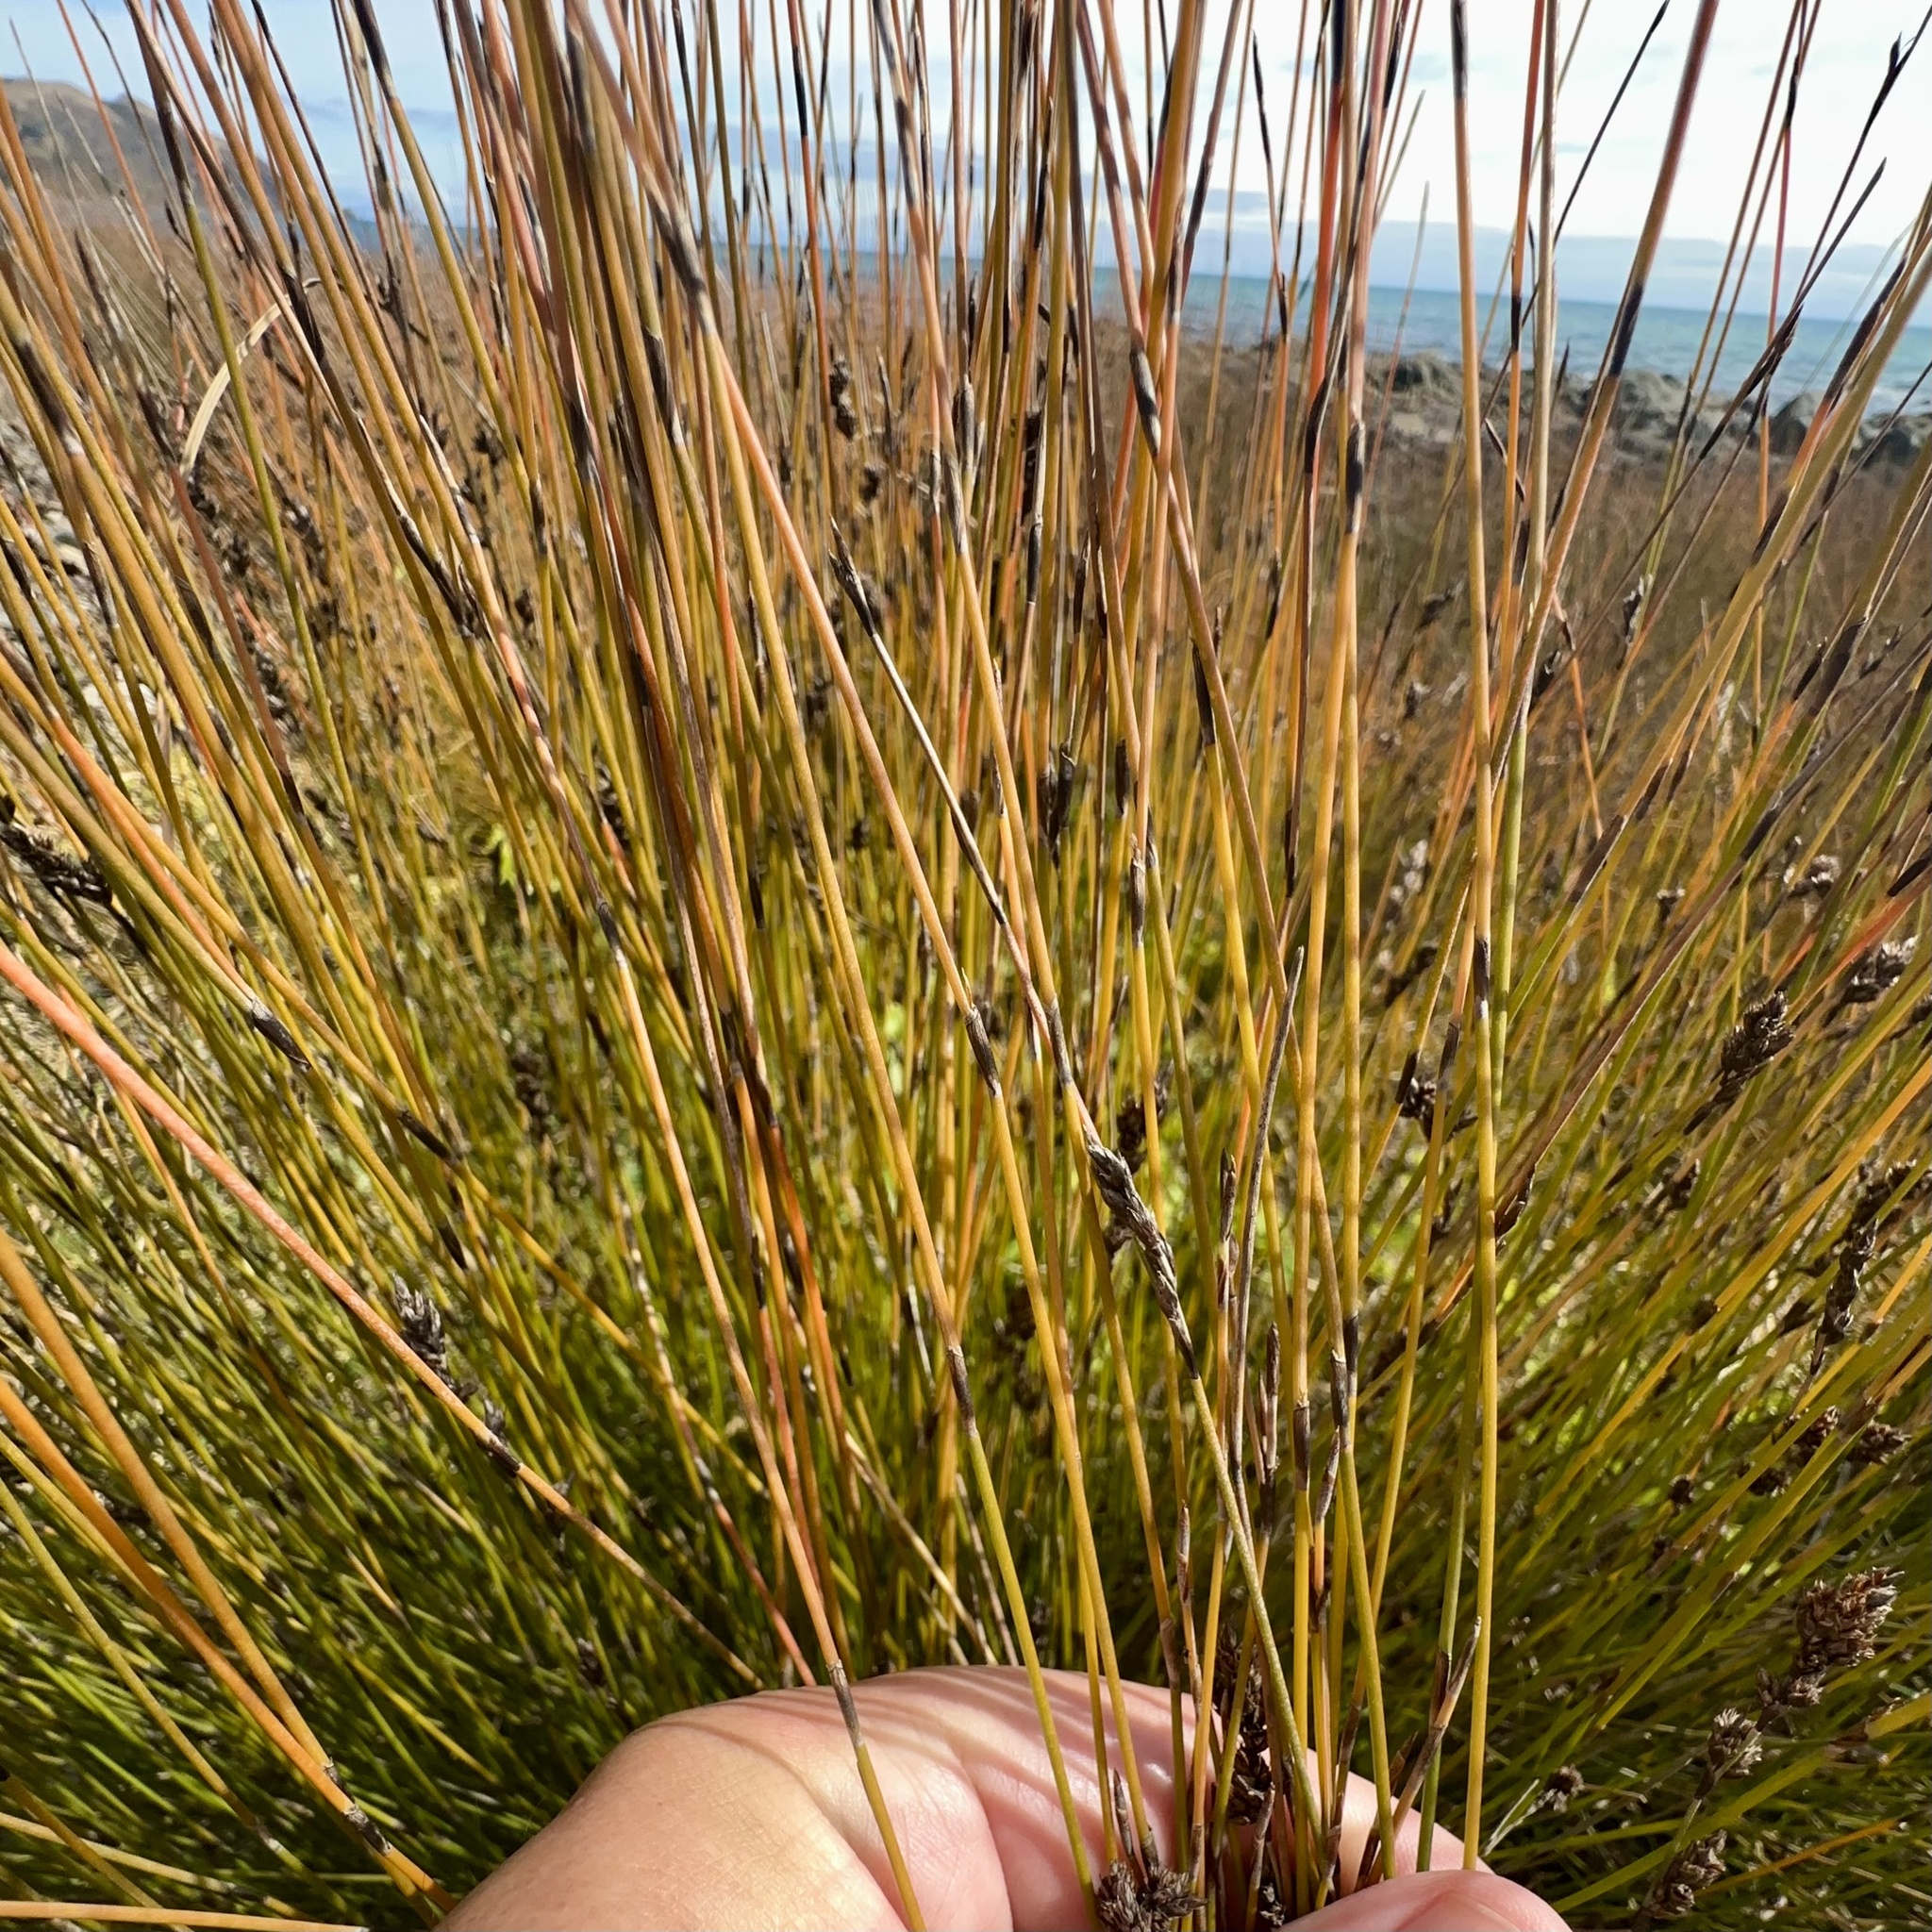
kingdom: Plantae
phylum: Tracheophyta
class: Liliopsida
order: Poales
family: Restionaceae
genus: Apodasmia
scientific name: Apodasmia similis
